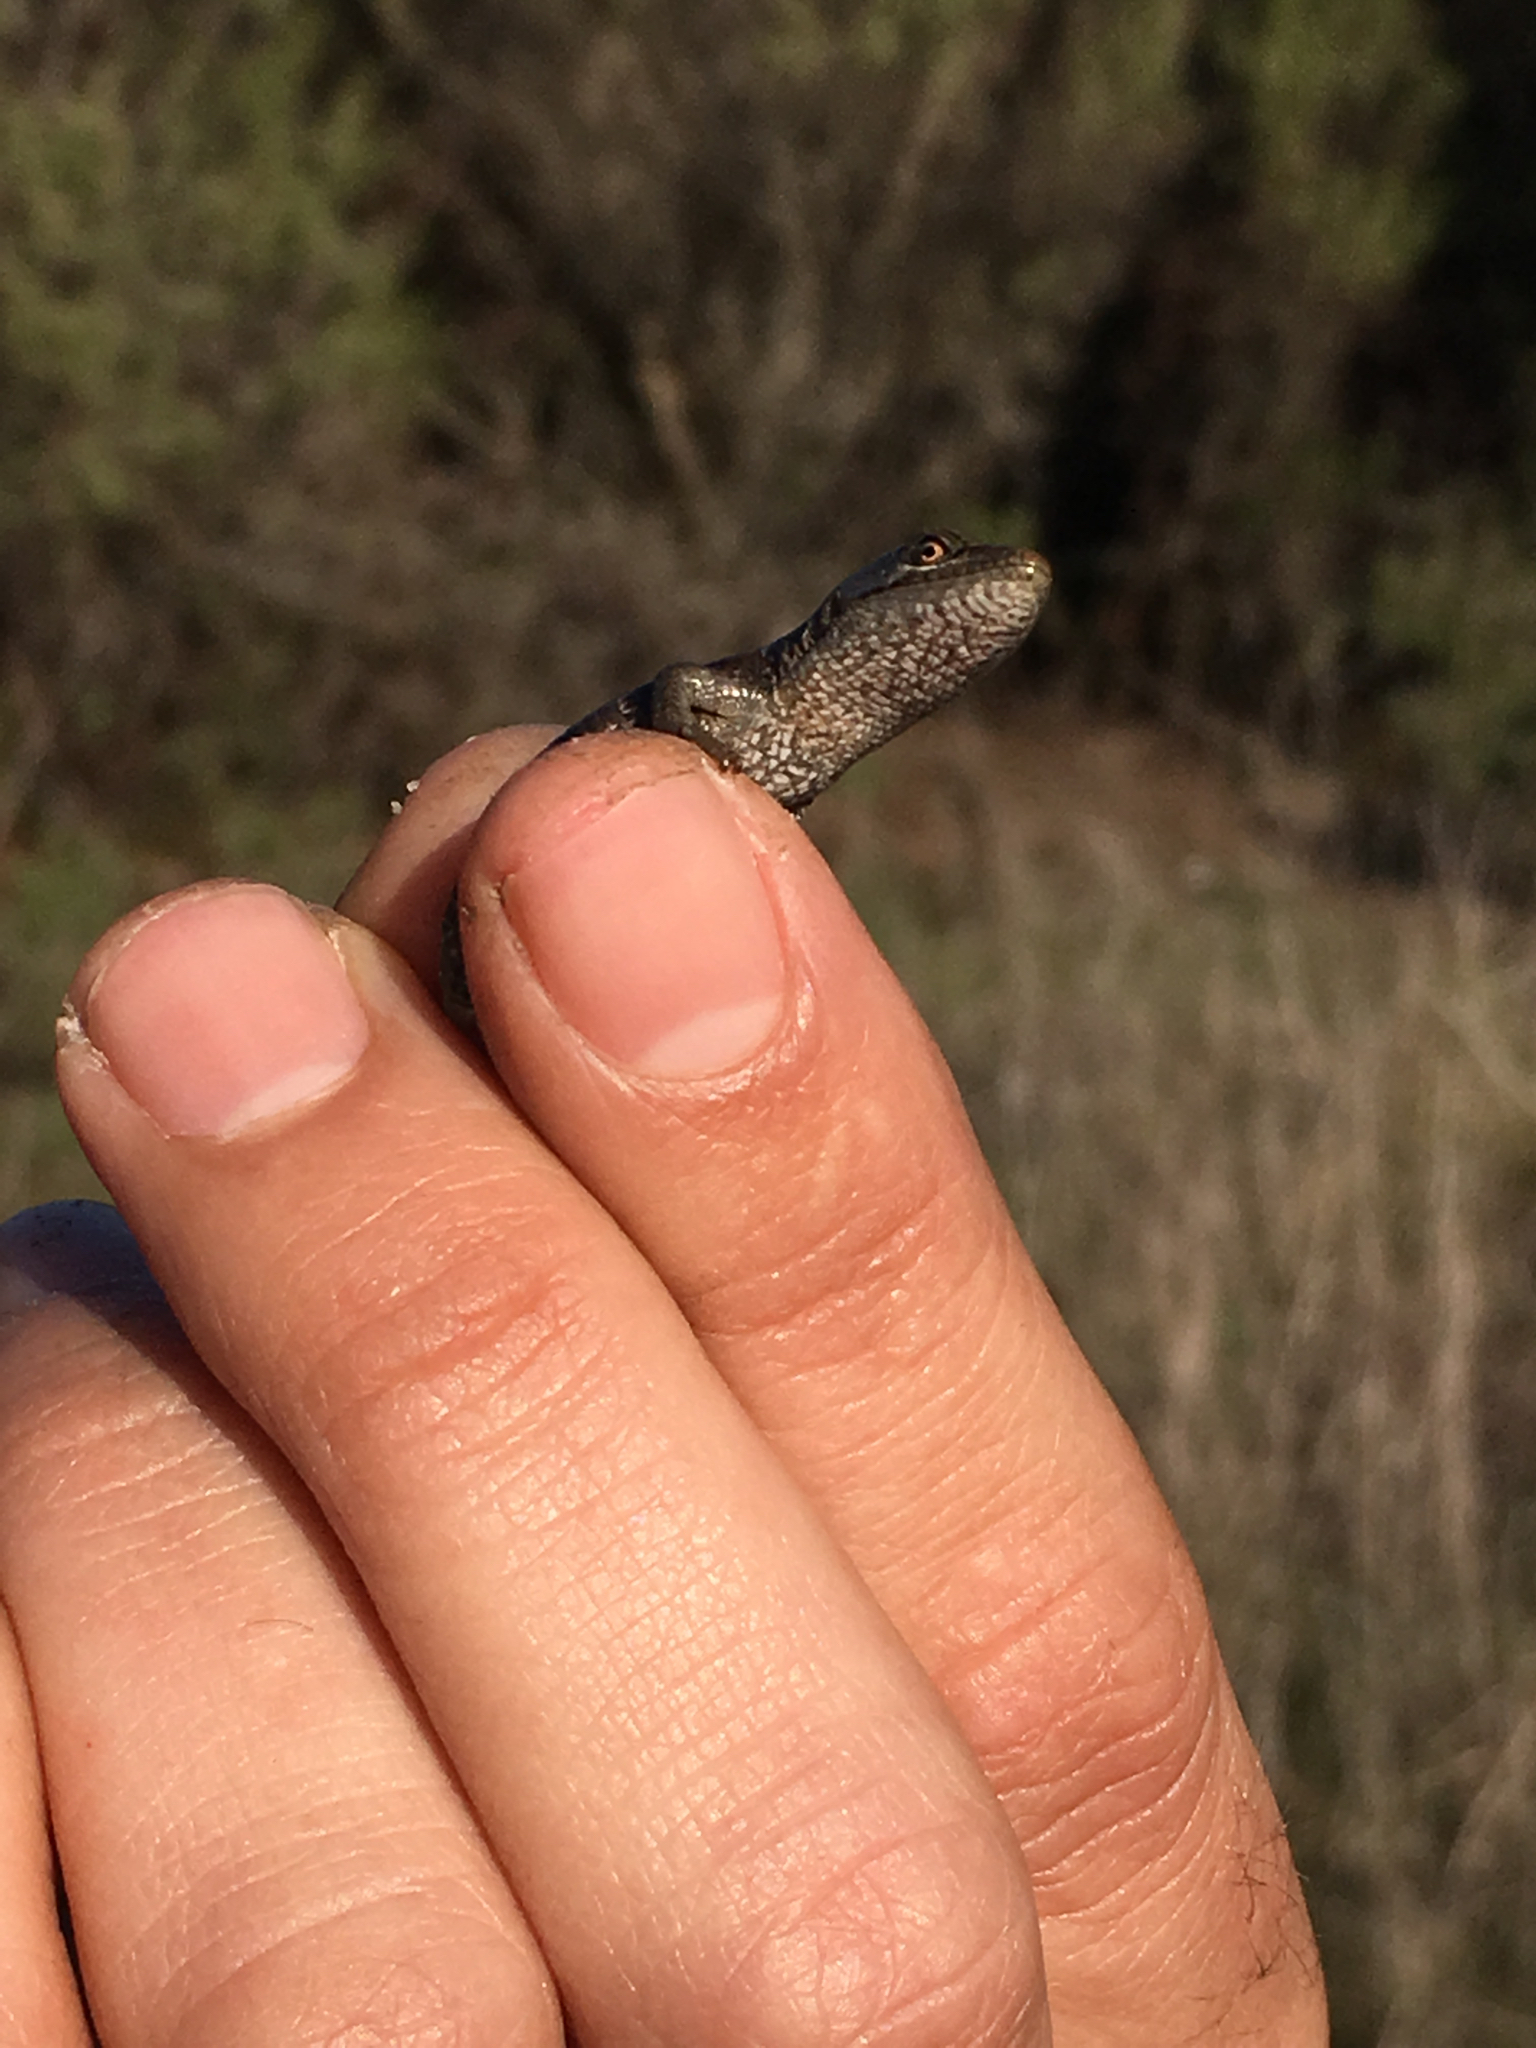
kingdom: Animalia
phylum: Chordata
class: Squamata
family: Anguidae
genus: Elgaria
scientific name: Elgaria multicarinata
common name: Southern alligator lizard
